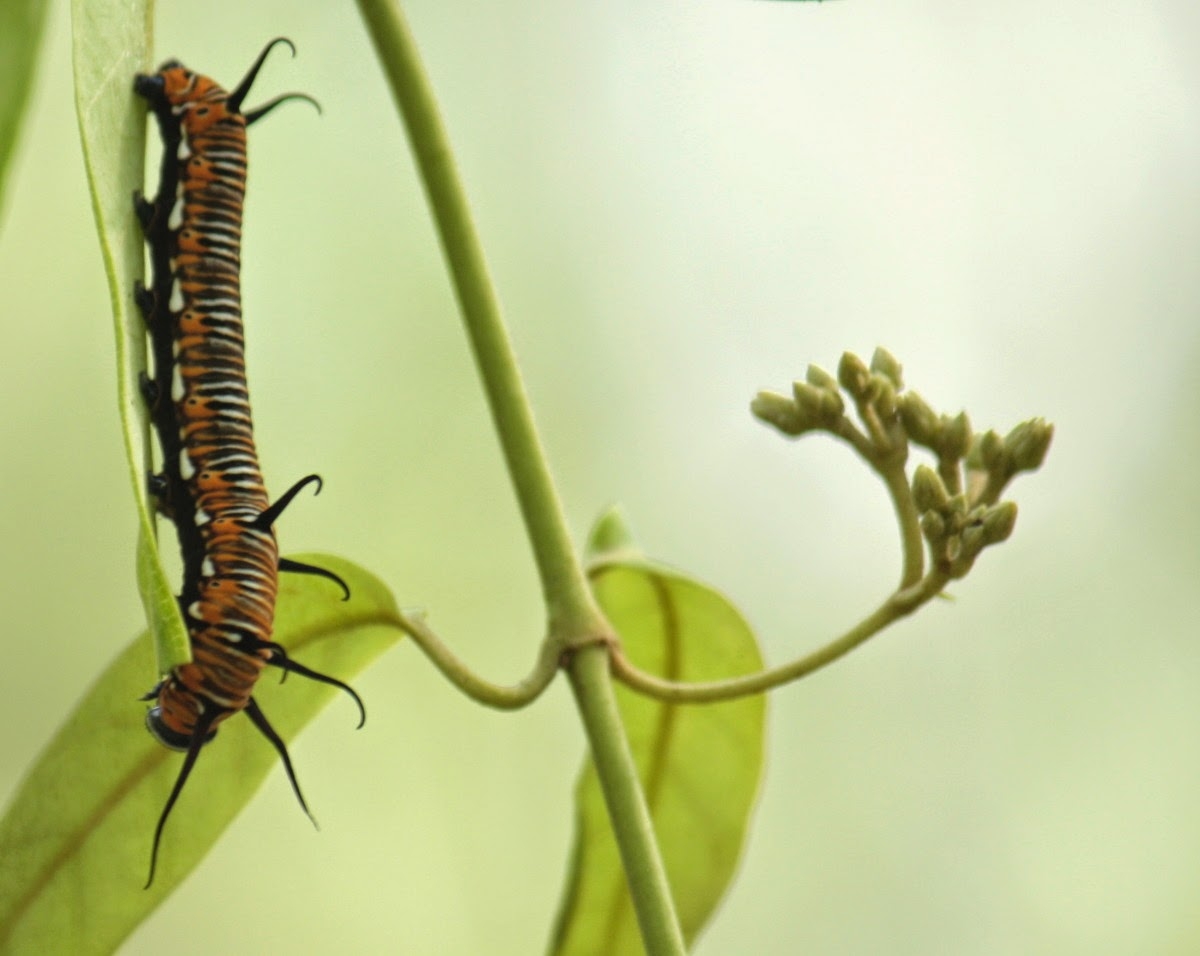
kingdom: Animalia
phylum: Arthropoda
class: Insecta
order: Lepidoptera
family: Nymphalidae
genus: Euploea
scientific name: Euploea core
